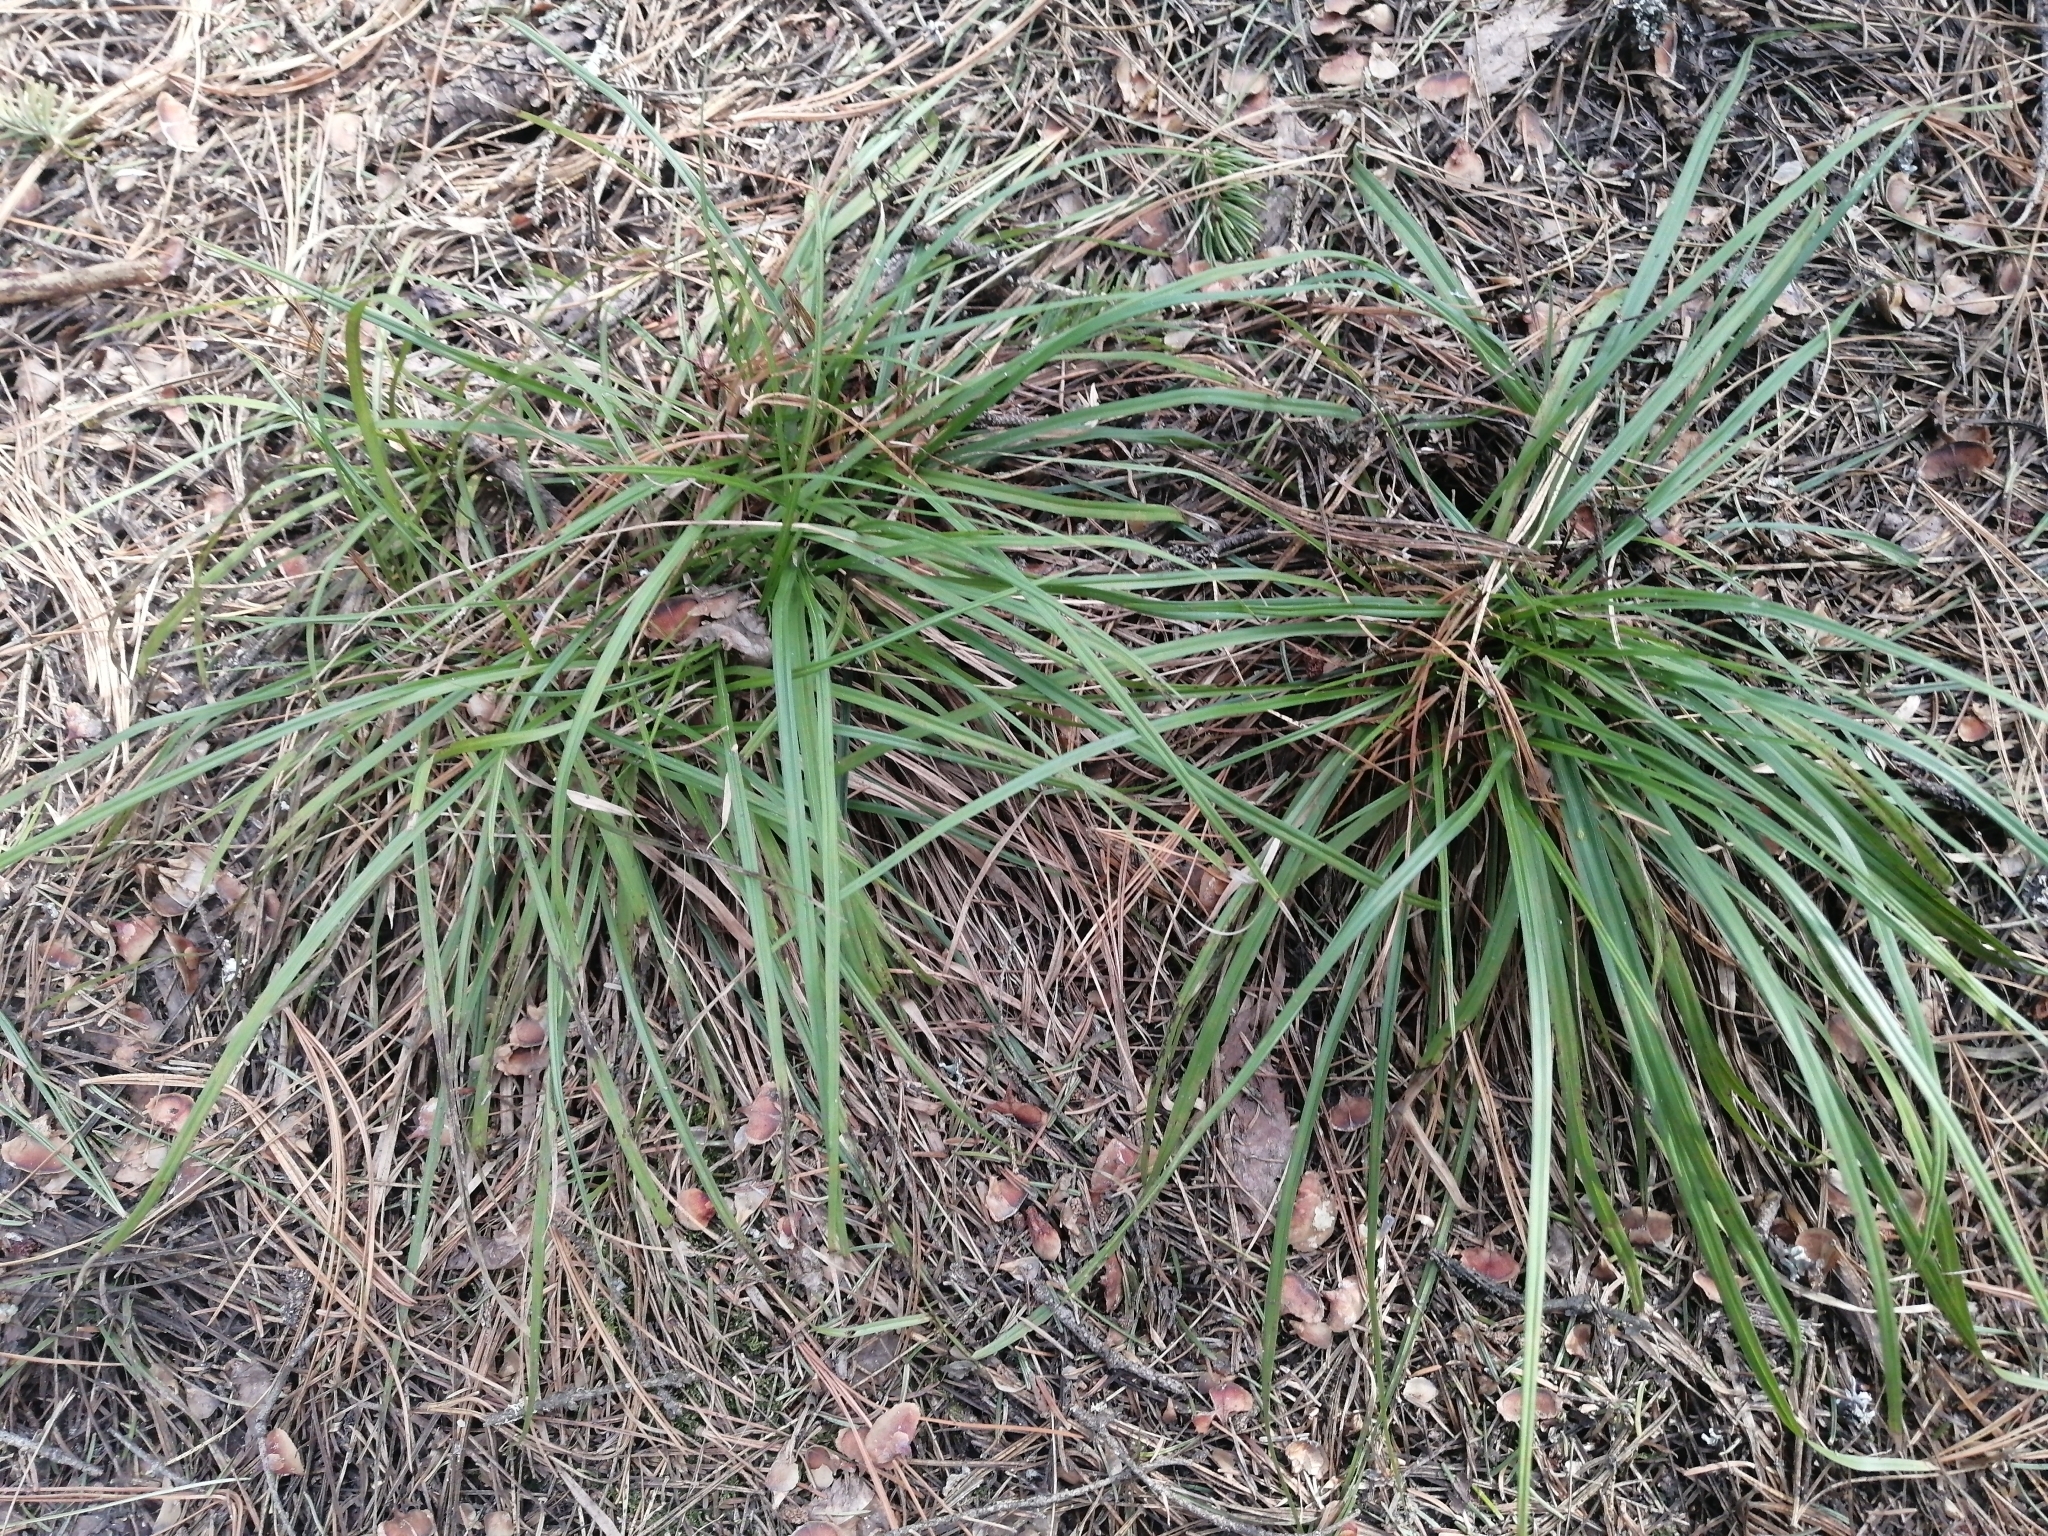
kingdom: Plantae
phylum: Tracheophyta
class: Liliopsida
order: Poales
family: Cyperaceae
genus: Carex
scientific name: Carex pediformis
